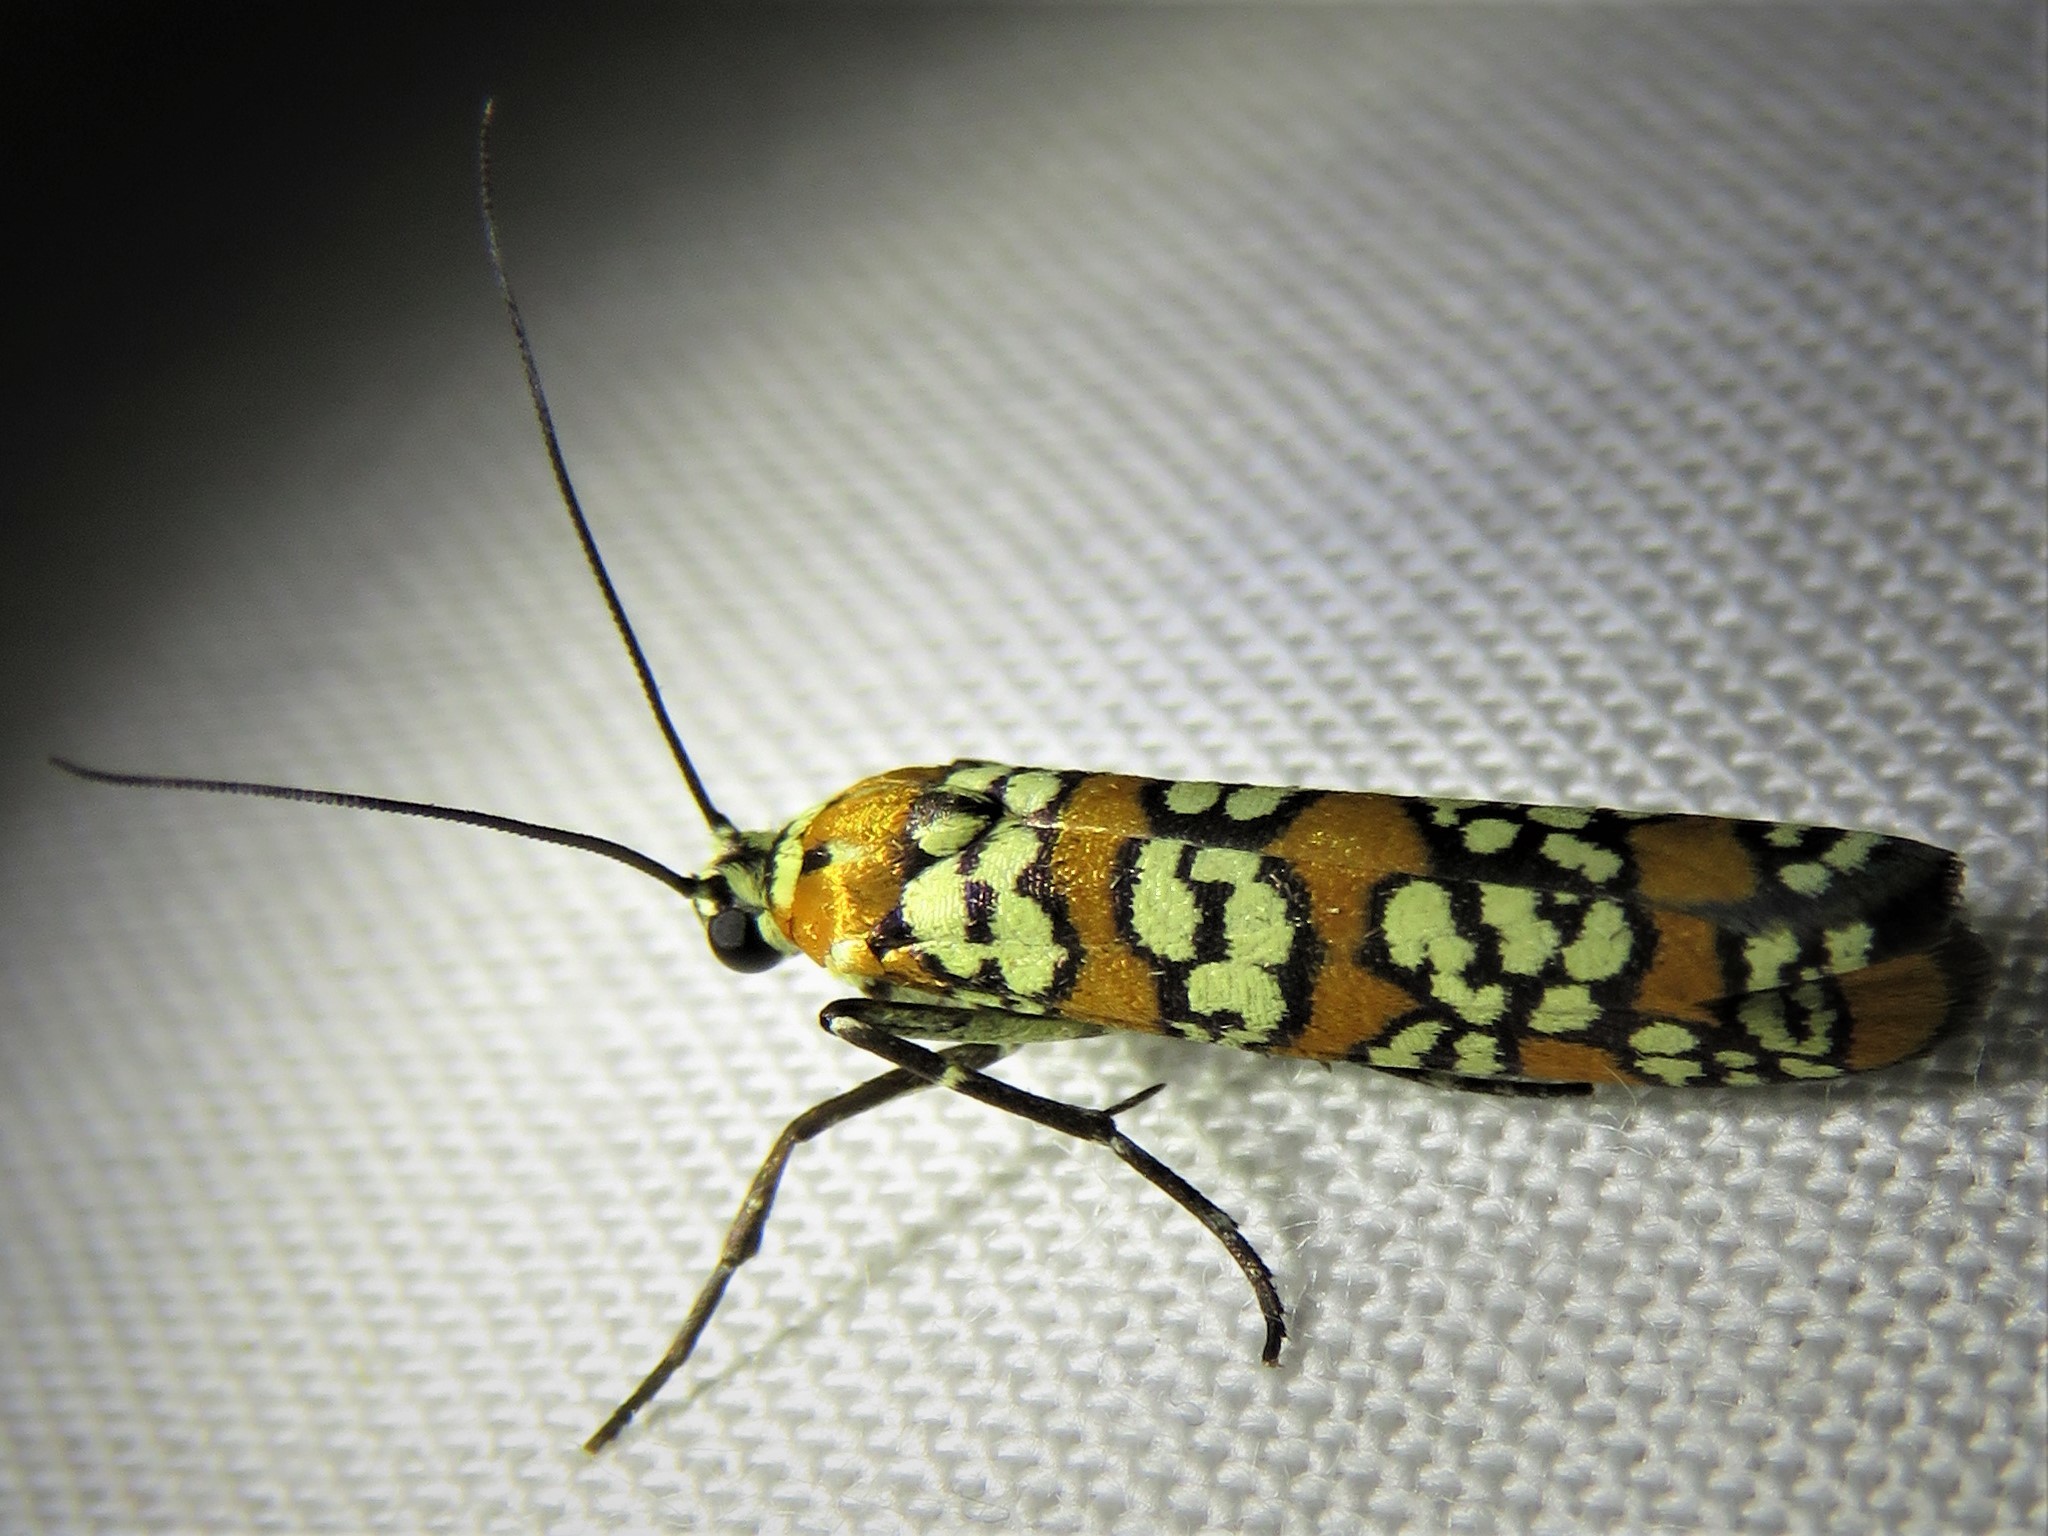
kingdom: Animalia
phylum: Arthropoda
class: Insecta
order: Lepidoptera
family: Attevidae
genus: Atteva
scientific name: Atteva punctella
